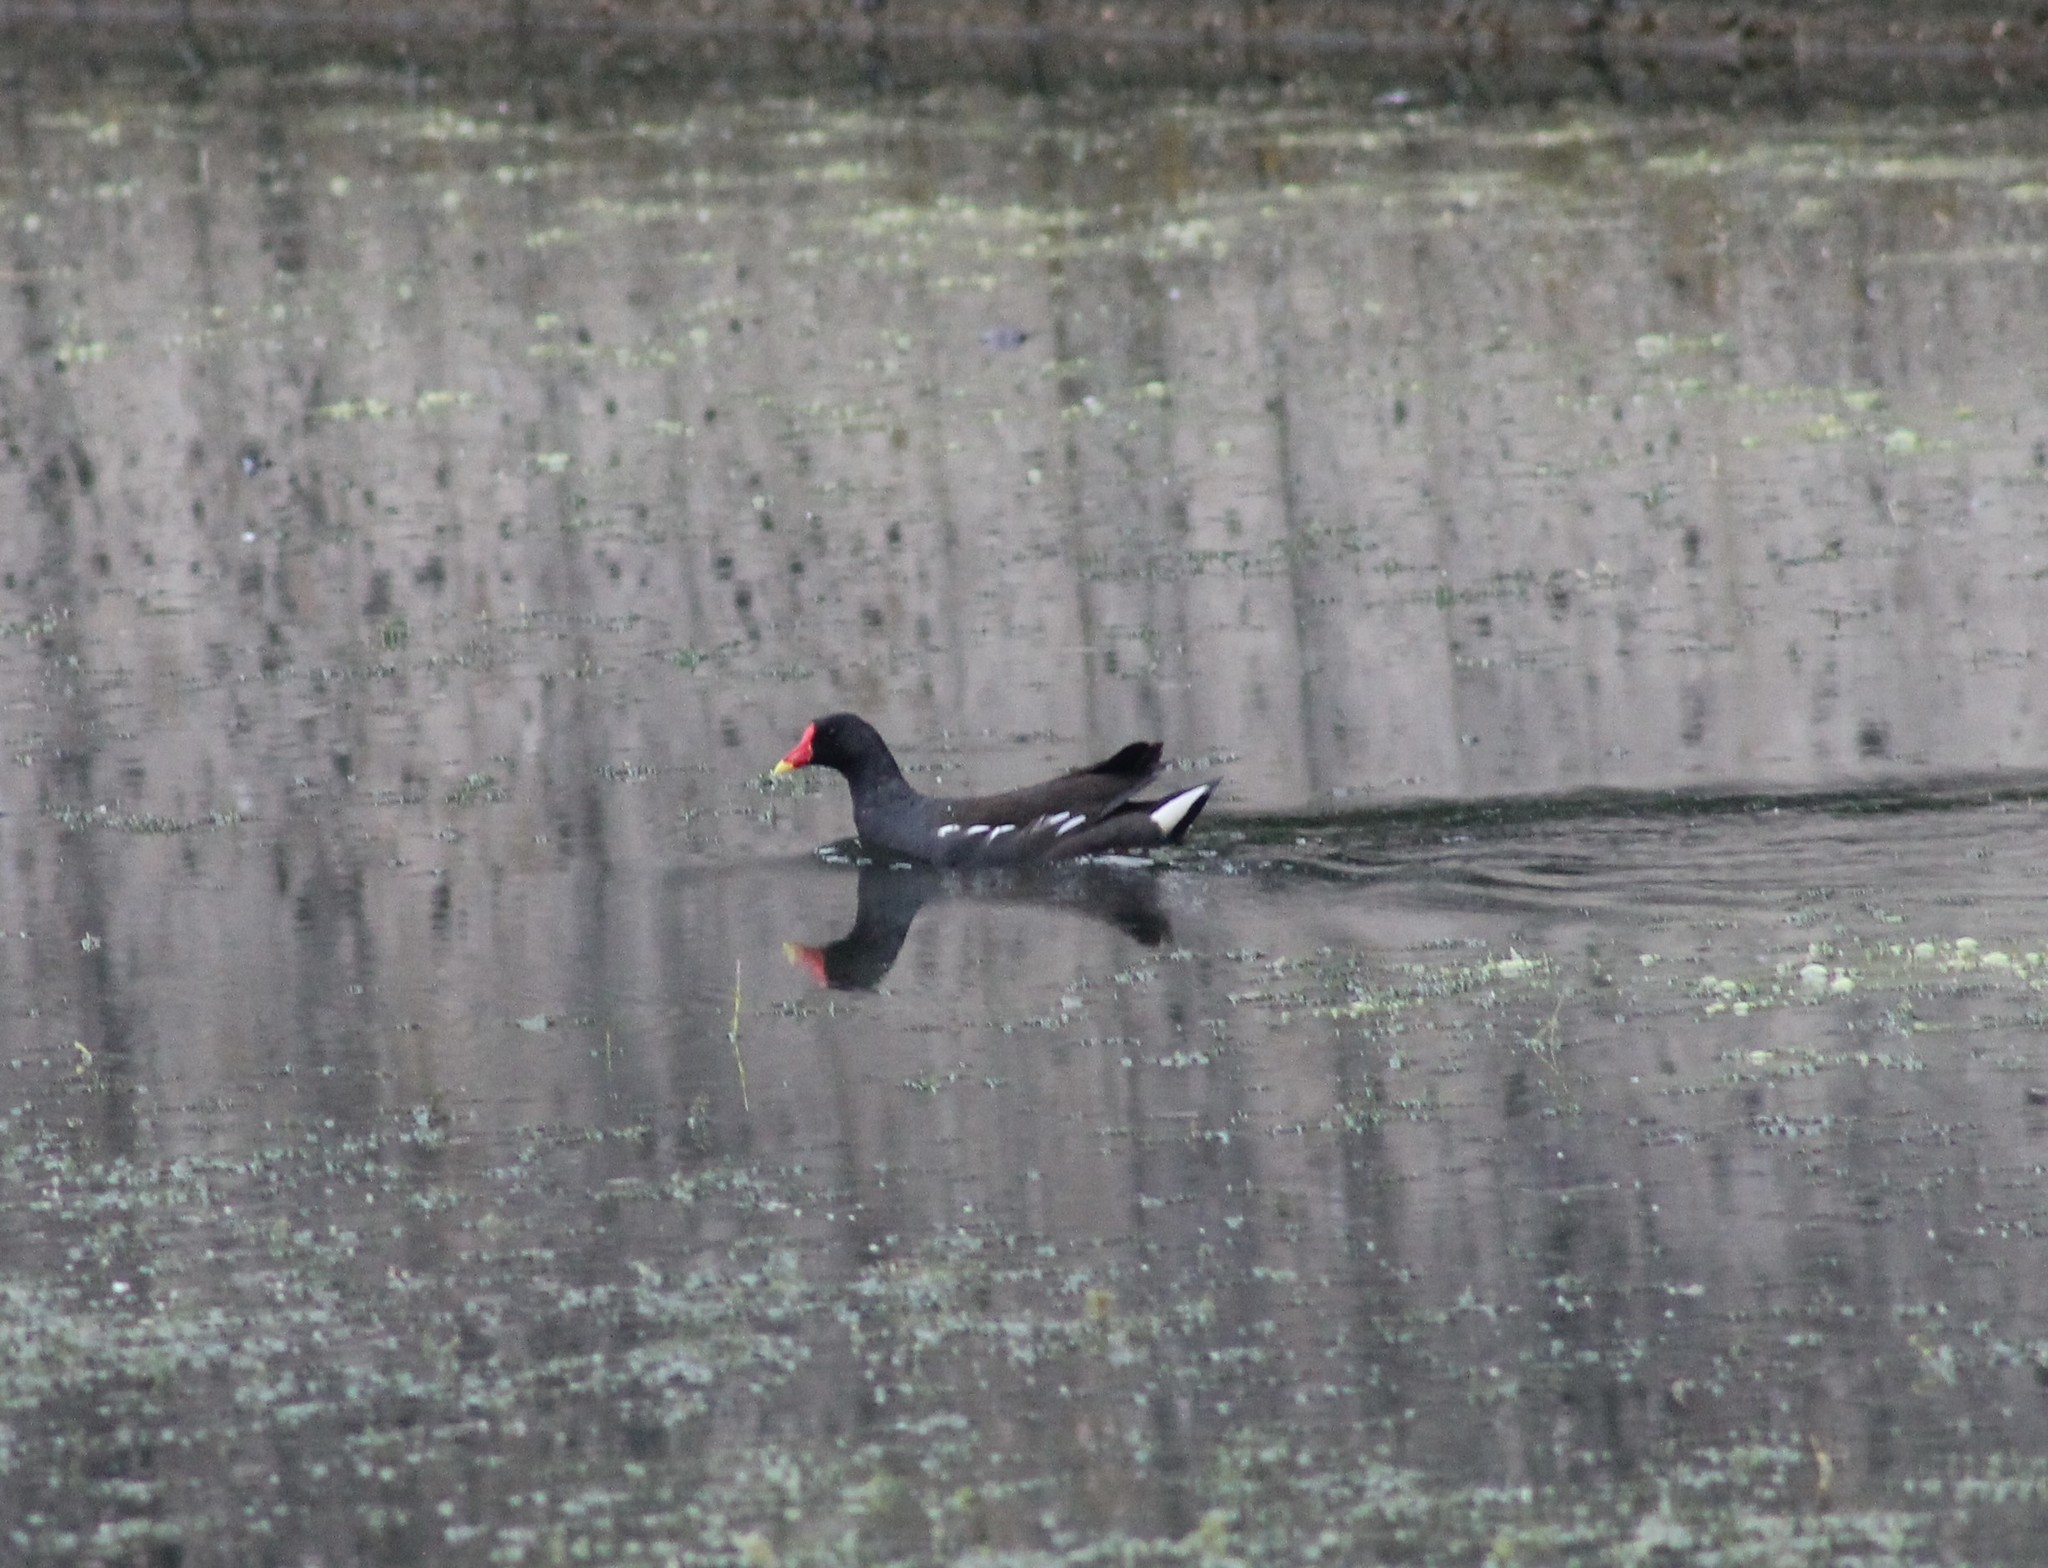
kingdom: Animalia
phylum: Chordata
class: Aves
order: Gruiformes
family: Rallidae
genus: Gallinula
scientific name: Gallinula chloropus
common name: Common moorhen
